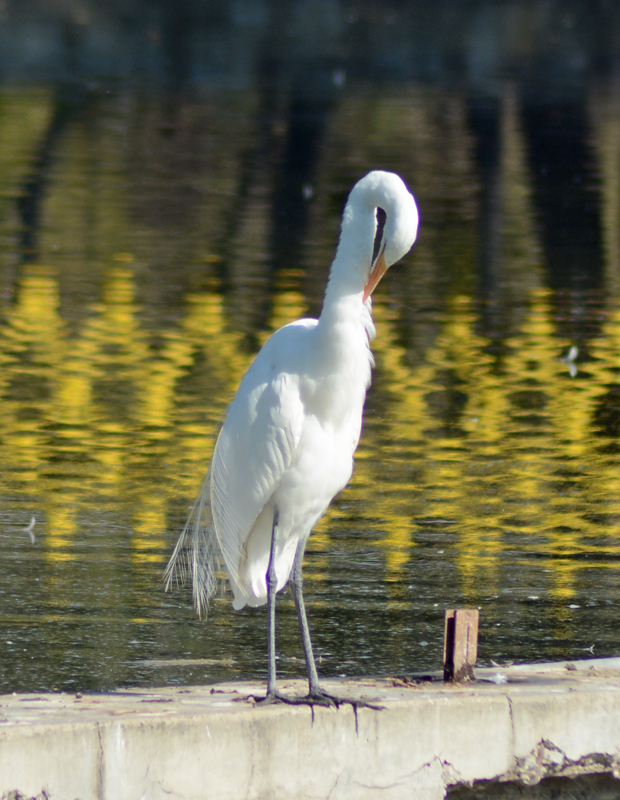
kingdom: Animalia
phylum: Chordata
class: Aves
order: Pelecaniformes
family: Ardeidae
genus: Ardea
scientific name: Ardea alba
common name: Great egret
